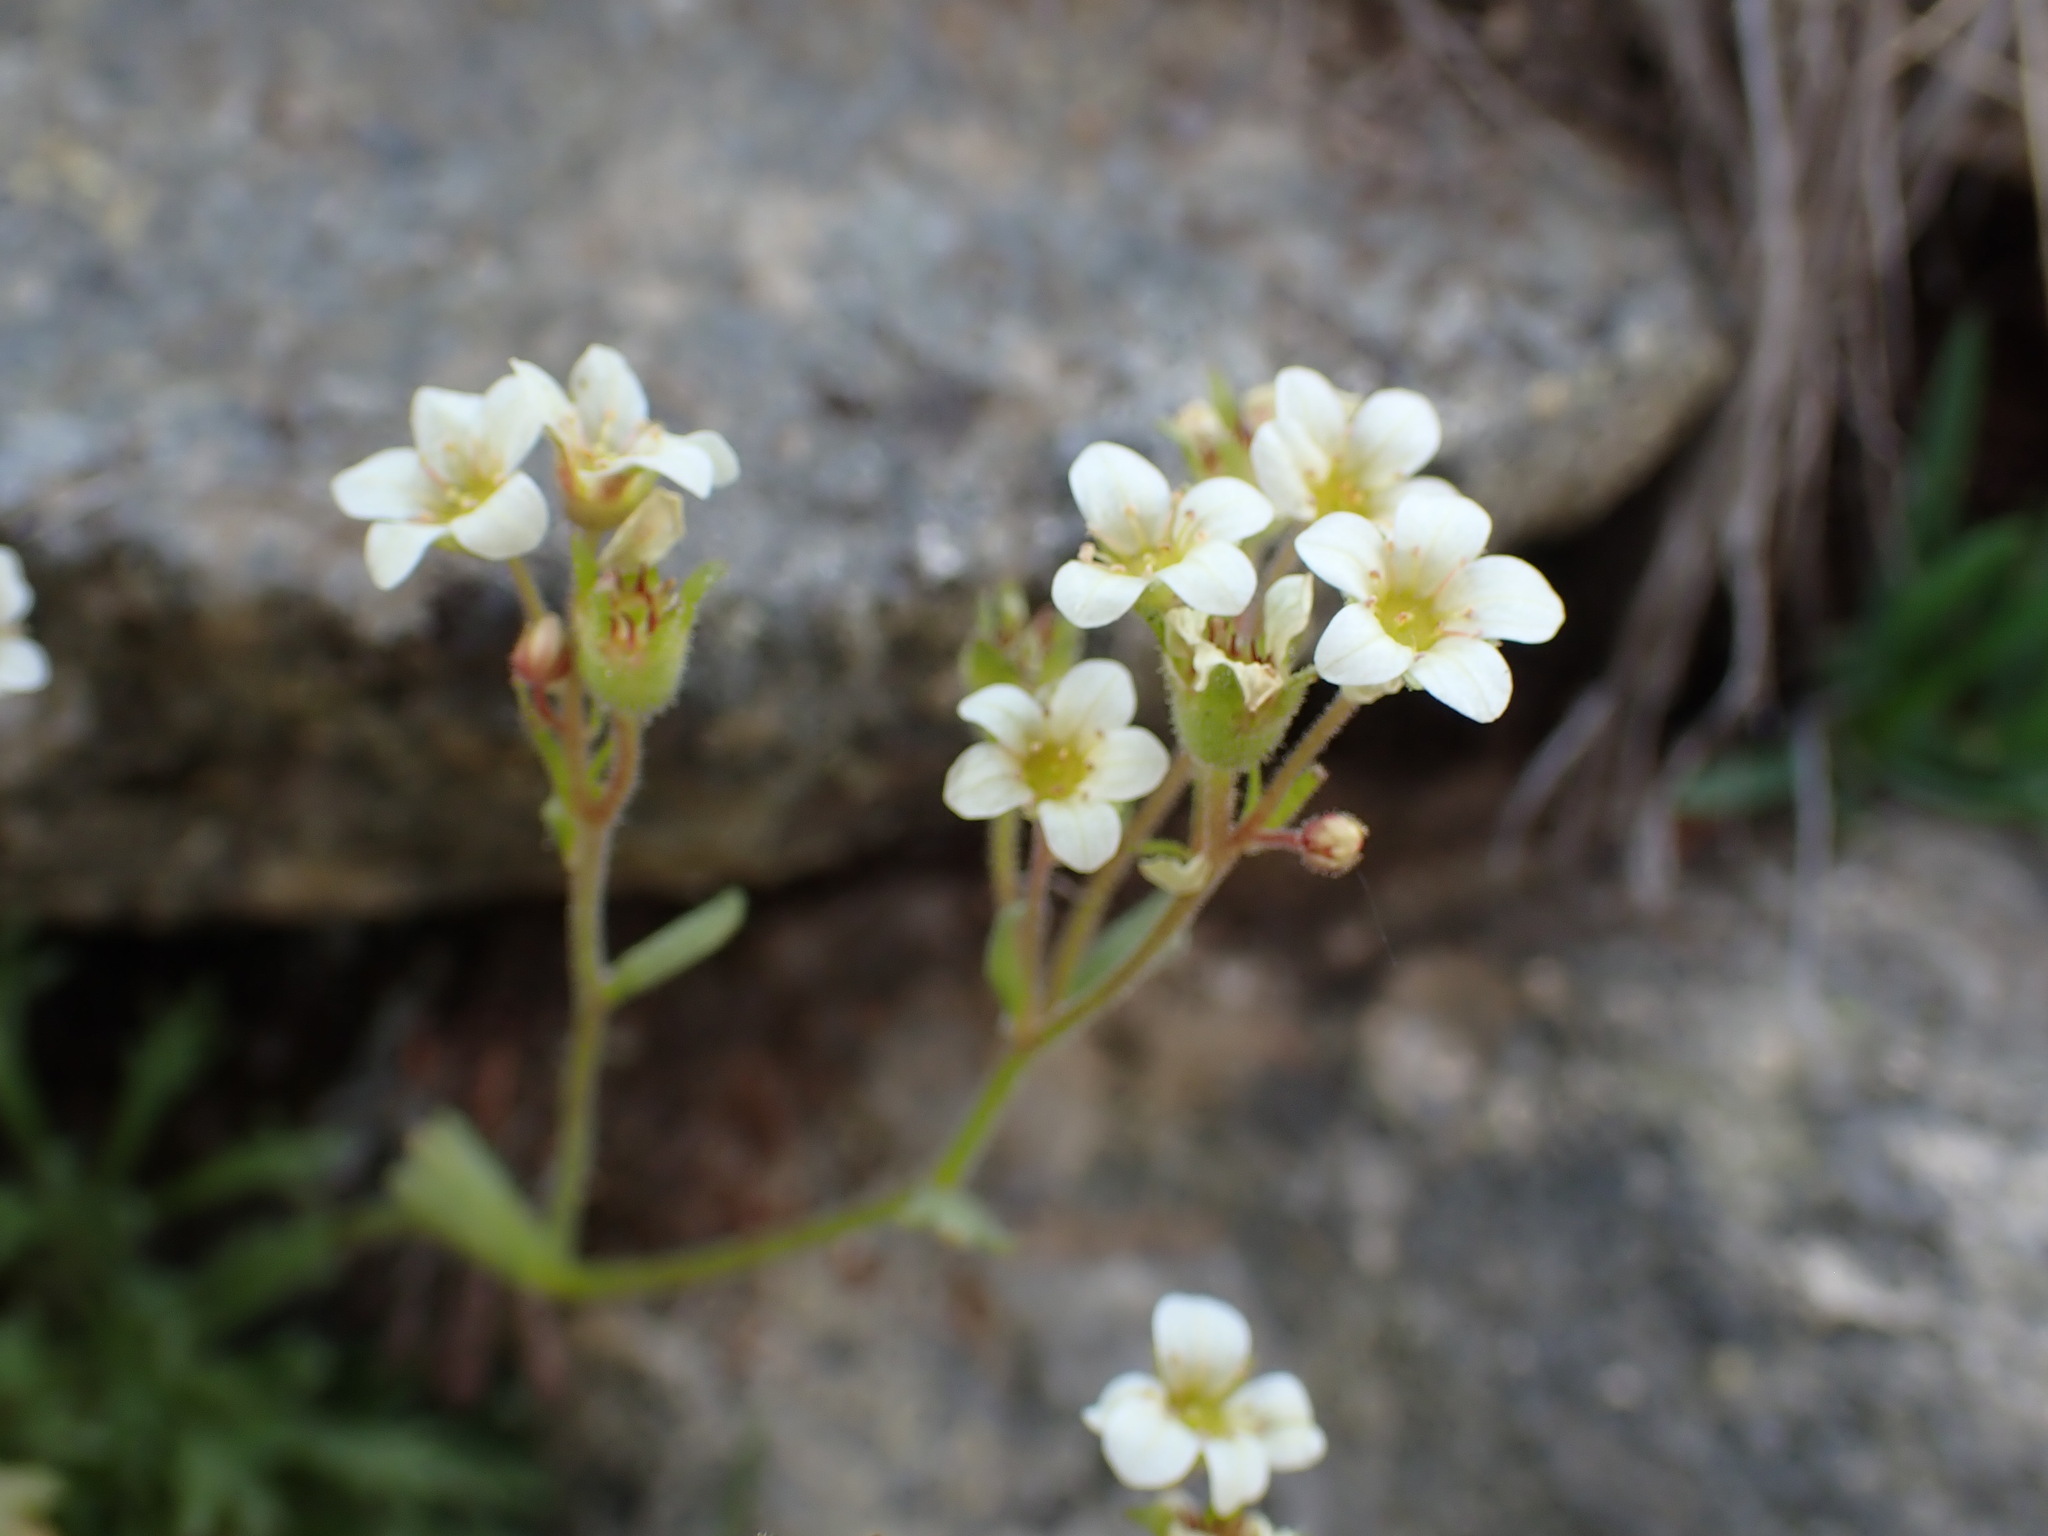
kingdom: Plantae
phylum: Tracheophyta
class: Magnoliopsida
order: Saxifragales
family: Saxifragaceae
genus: Saxifraga
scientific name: Saxifraga exarata
